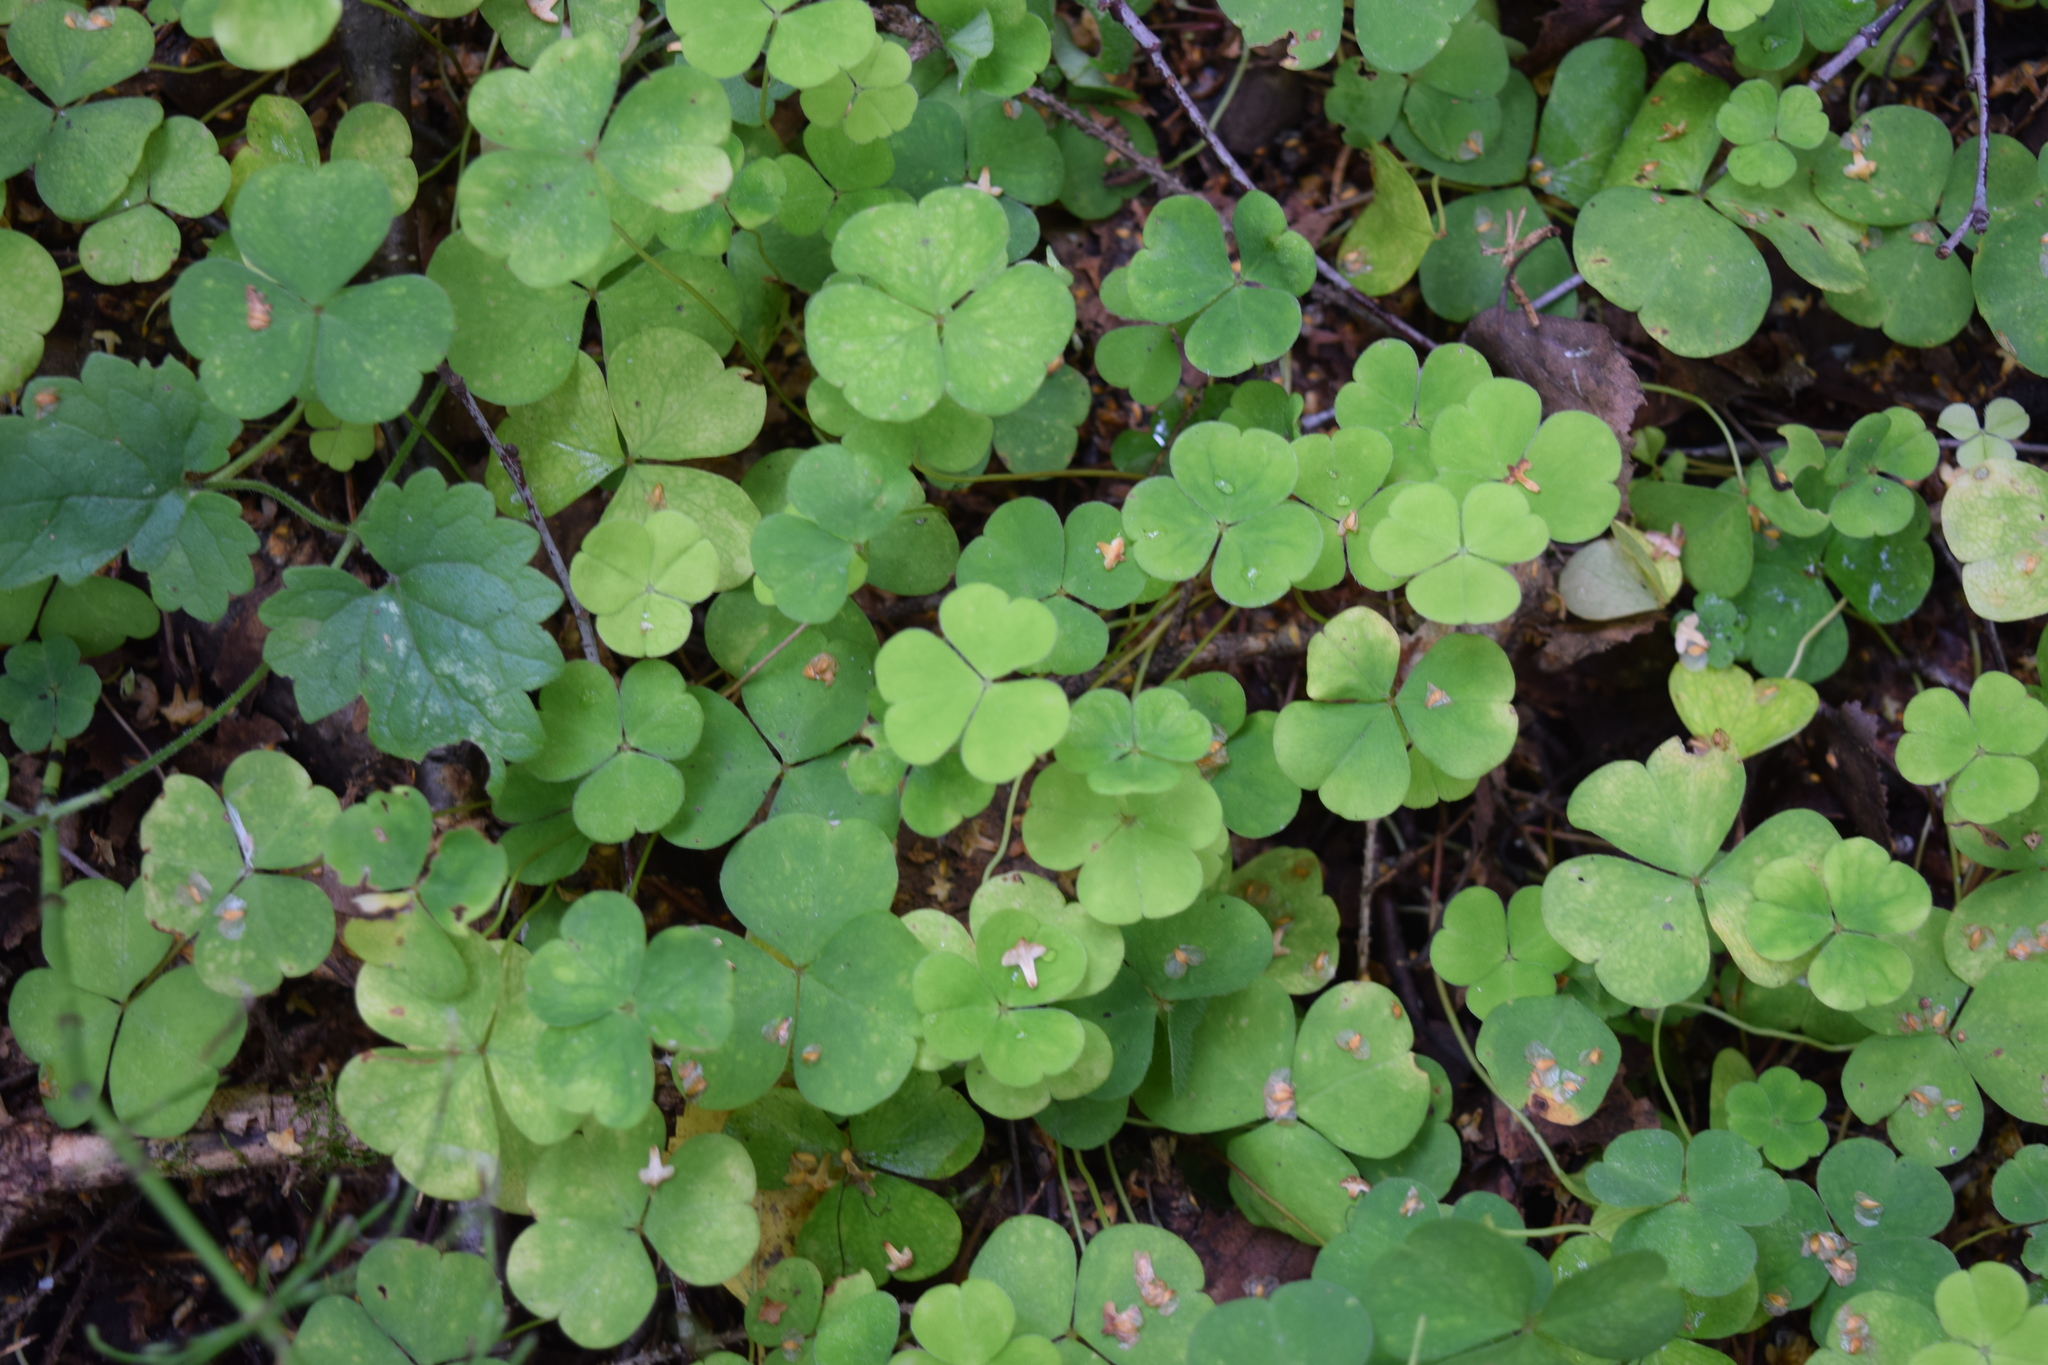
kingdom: Plantae
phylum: Tracheophyta
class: Magnoliopsida
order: Oxalidales
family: Oxalidaceae
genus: Oxalis
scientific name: Oxalis acetosella
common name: Wood-sorrel
